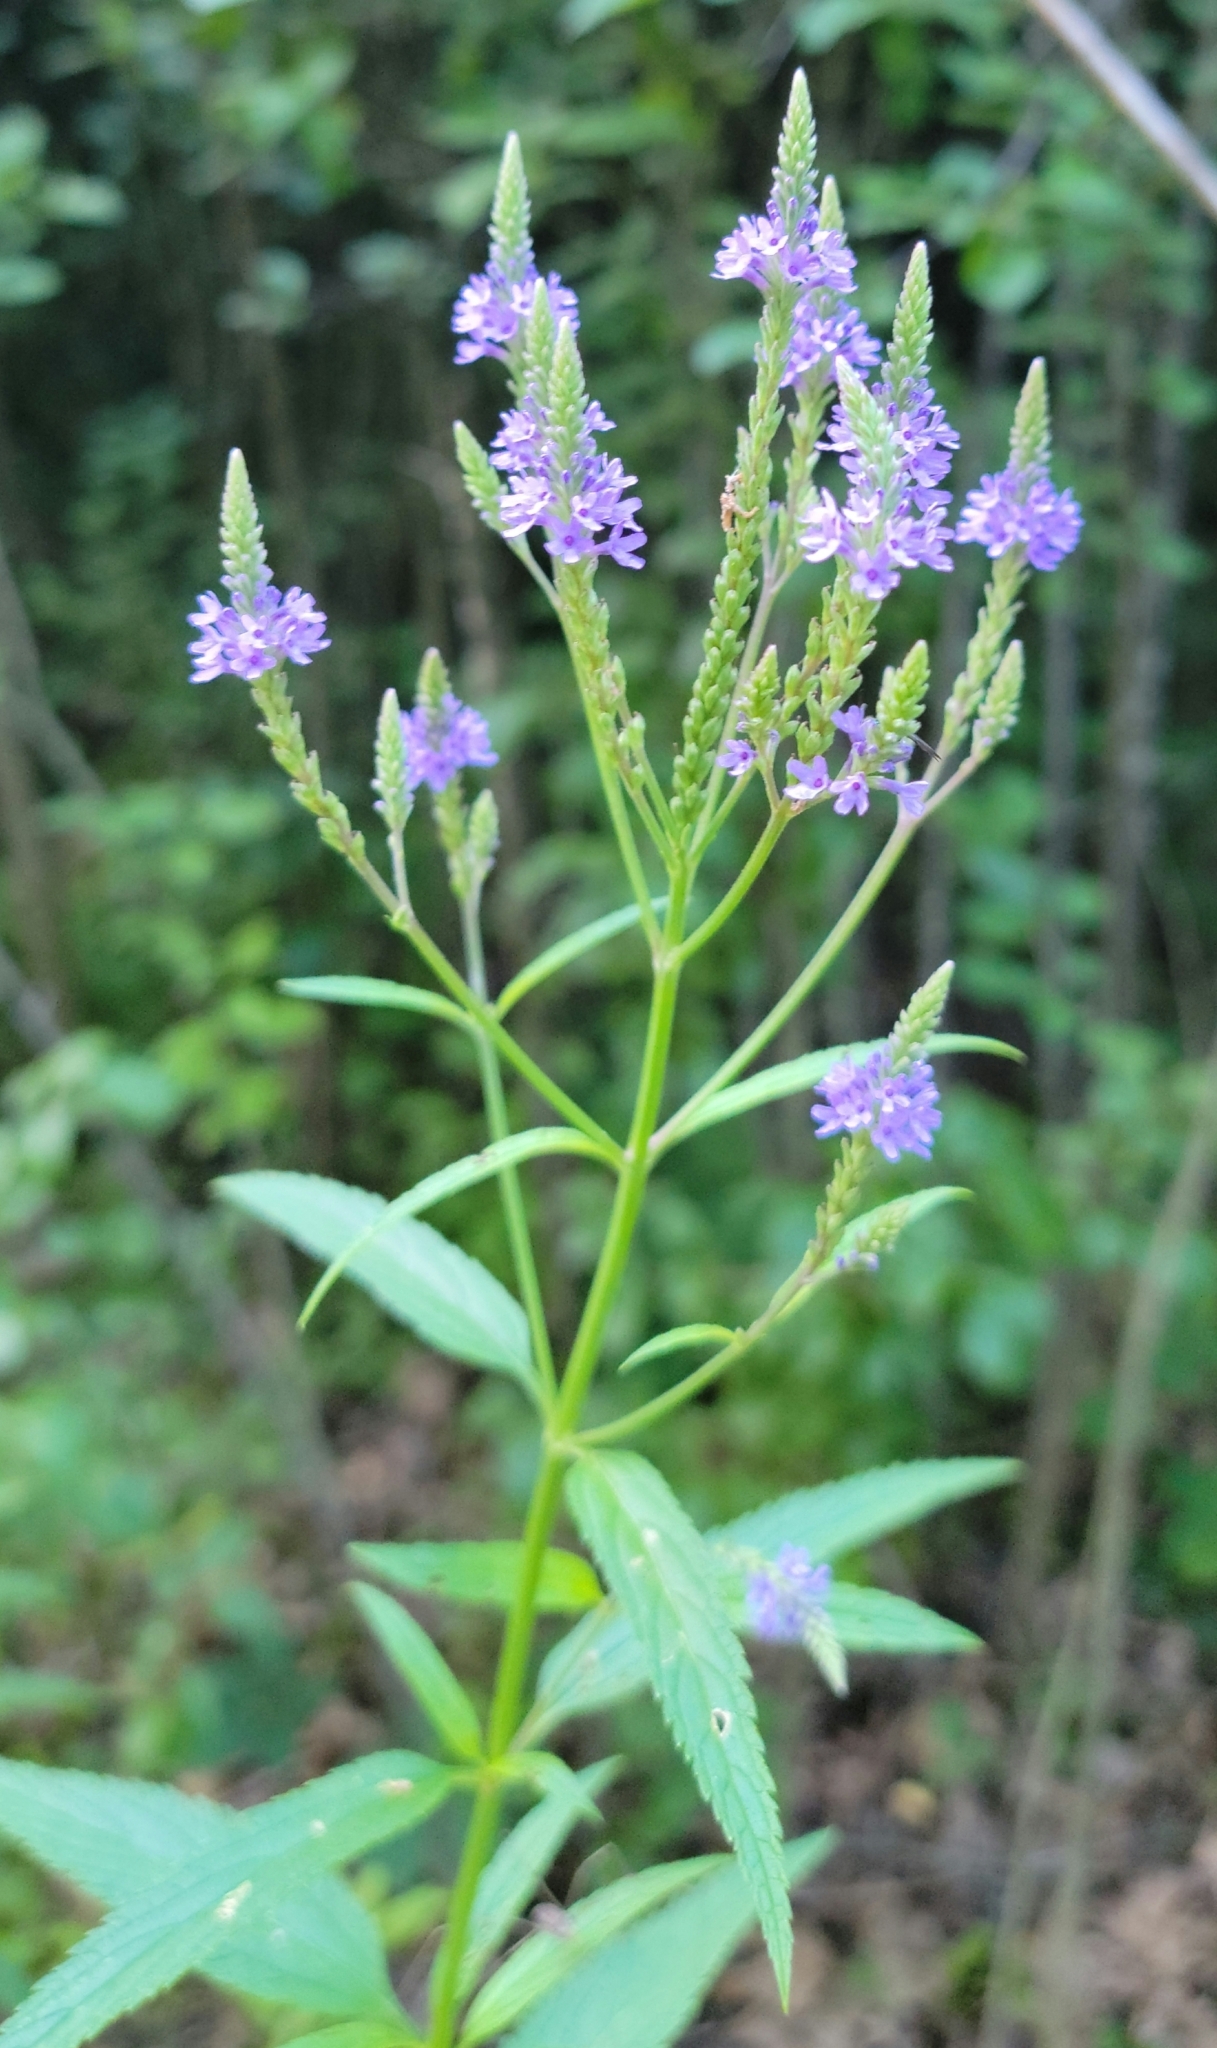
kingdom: Plantae
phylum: Tracheophyta
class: Magnoliopsida
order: Lamiales
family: Verbenaceae
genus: Verbena
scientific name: Verbena hastata
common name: American blue vervain
